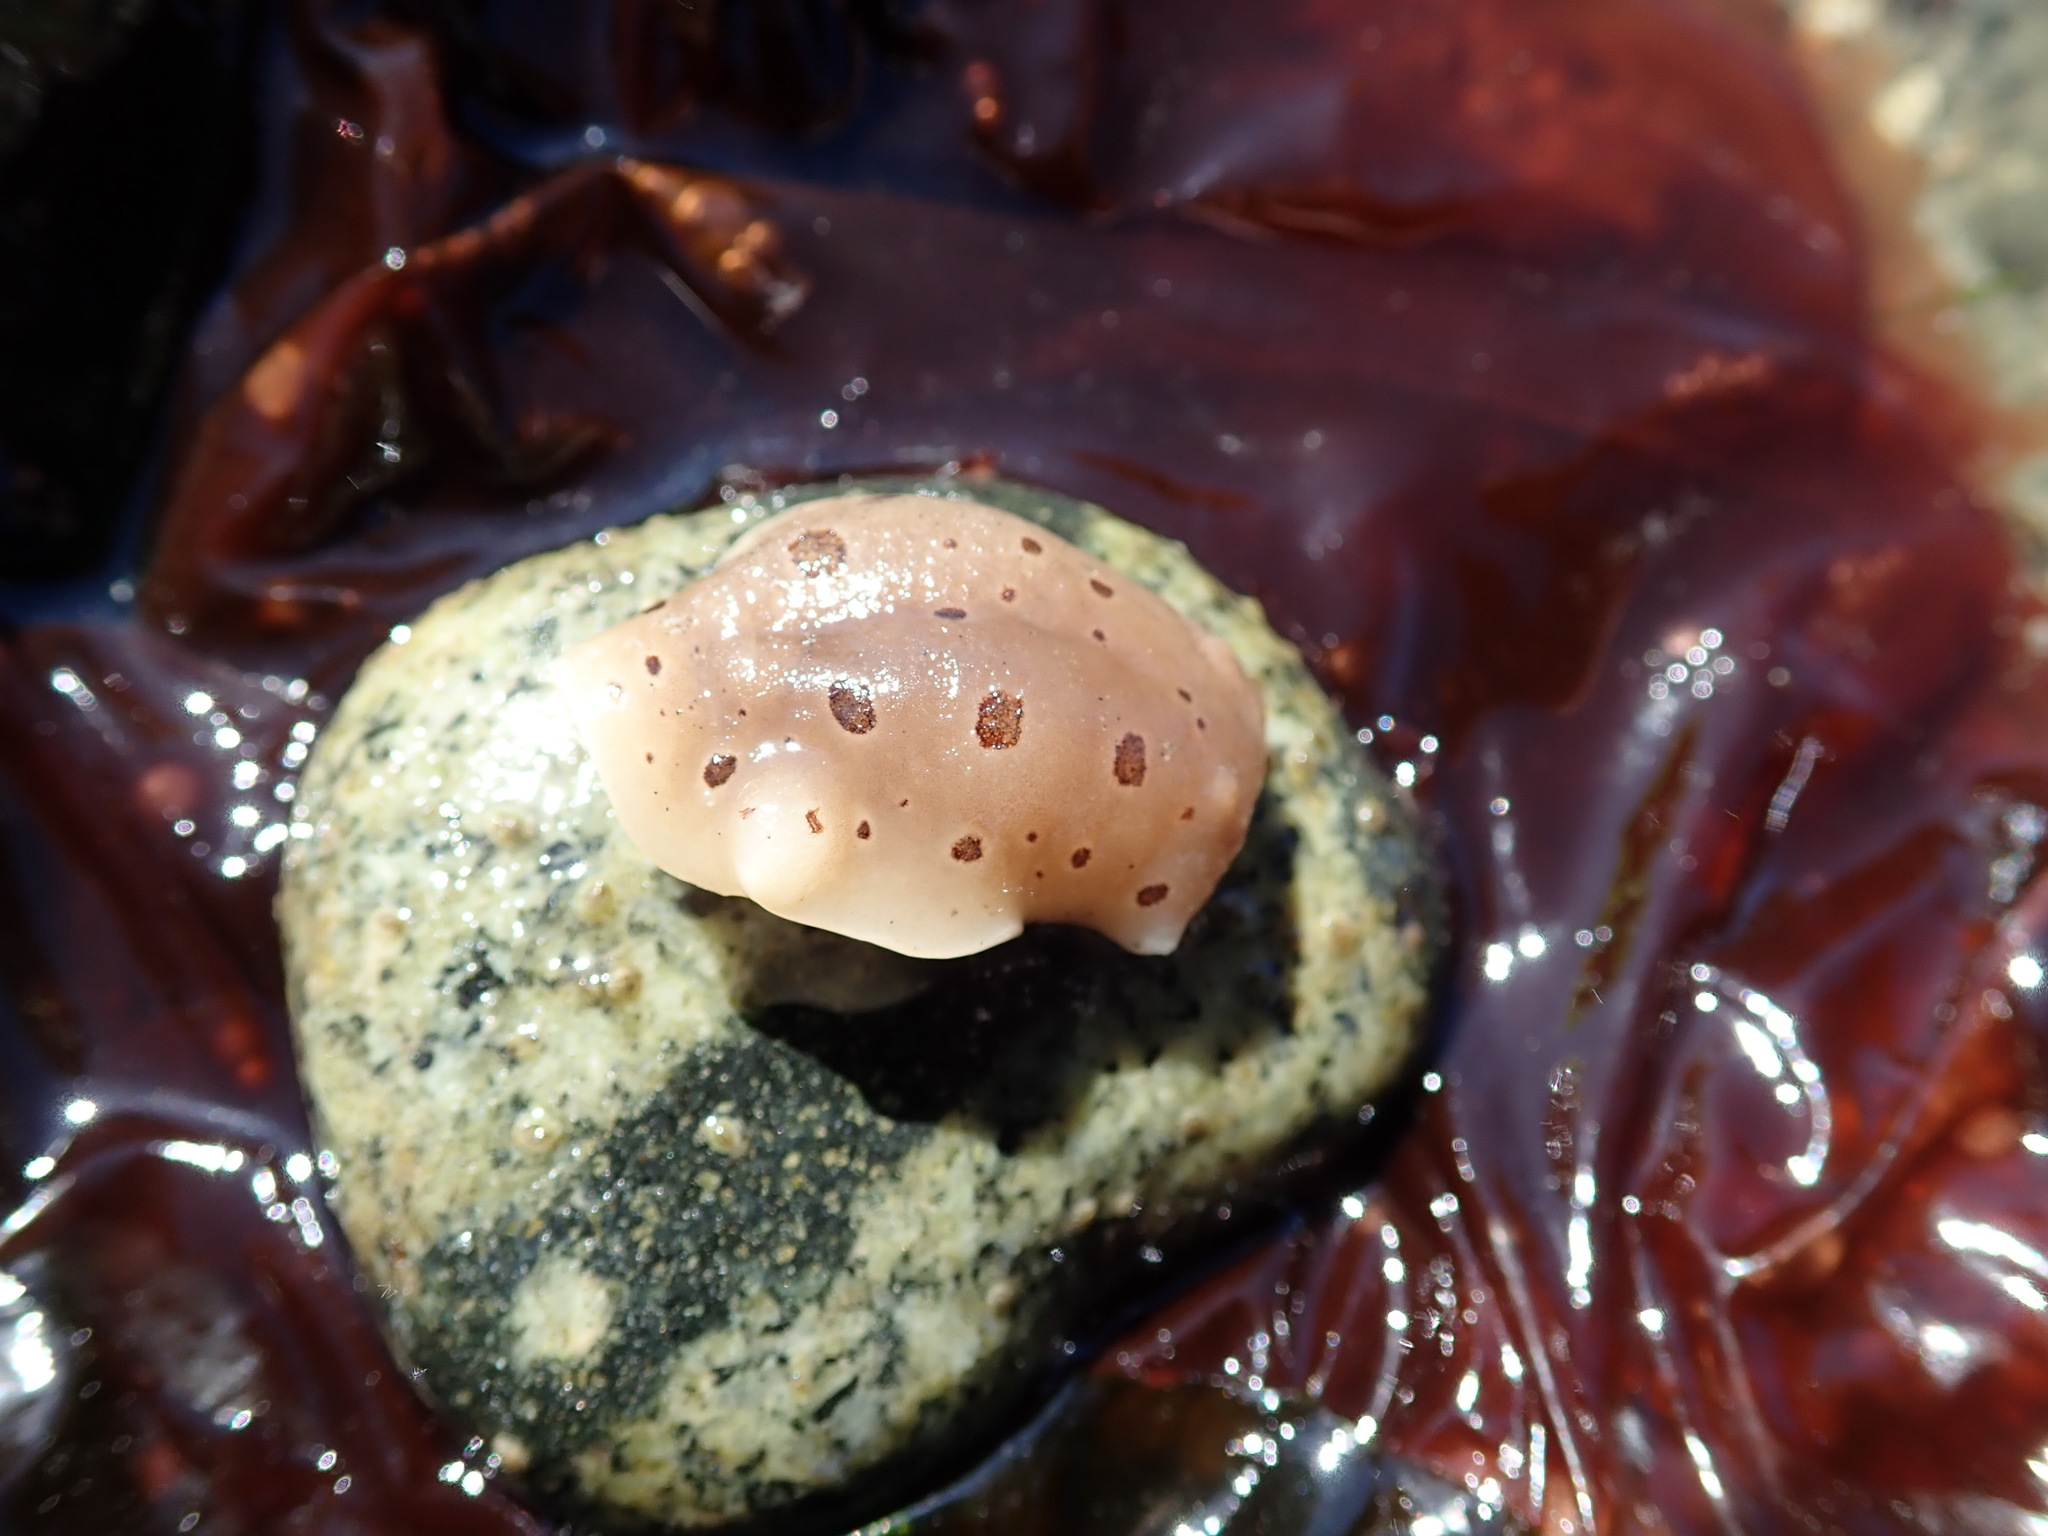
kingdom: Animalia
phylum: Mollusca
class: Gastropoda
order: Nudibranchia
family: Discodorididae
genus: Diaulula
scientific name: Diaulula odonoghuei
